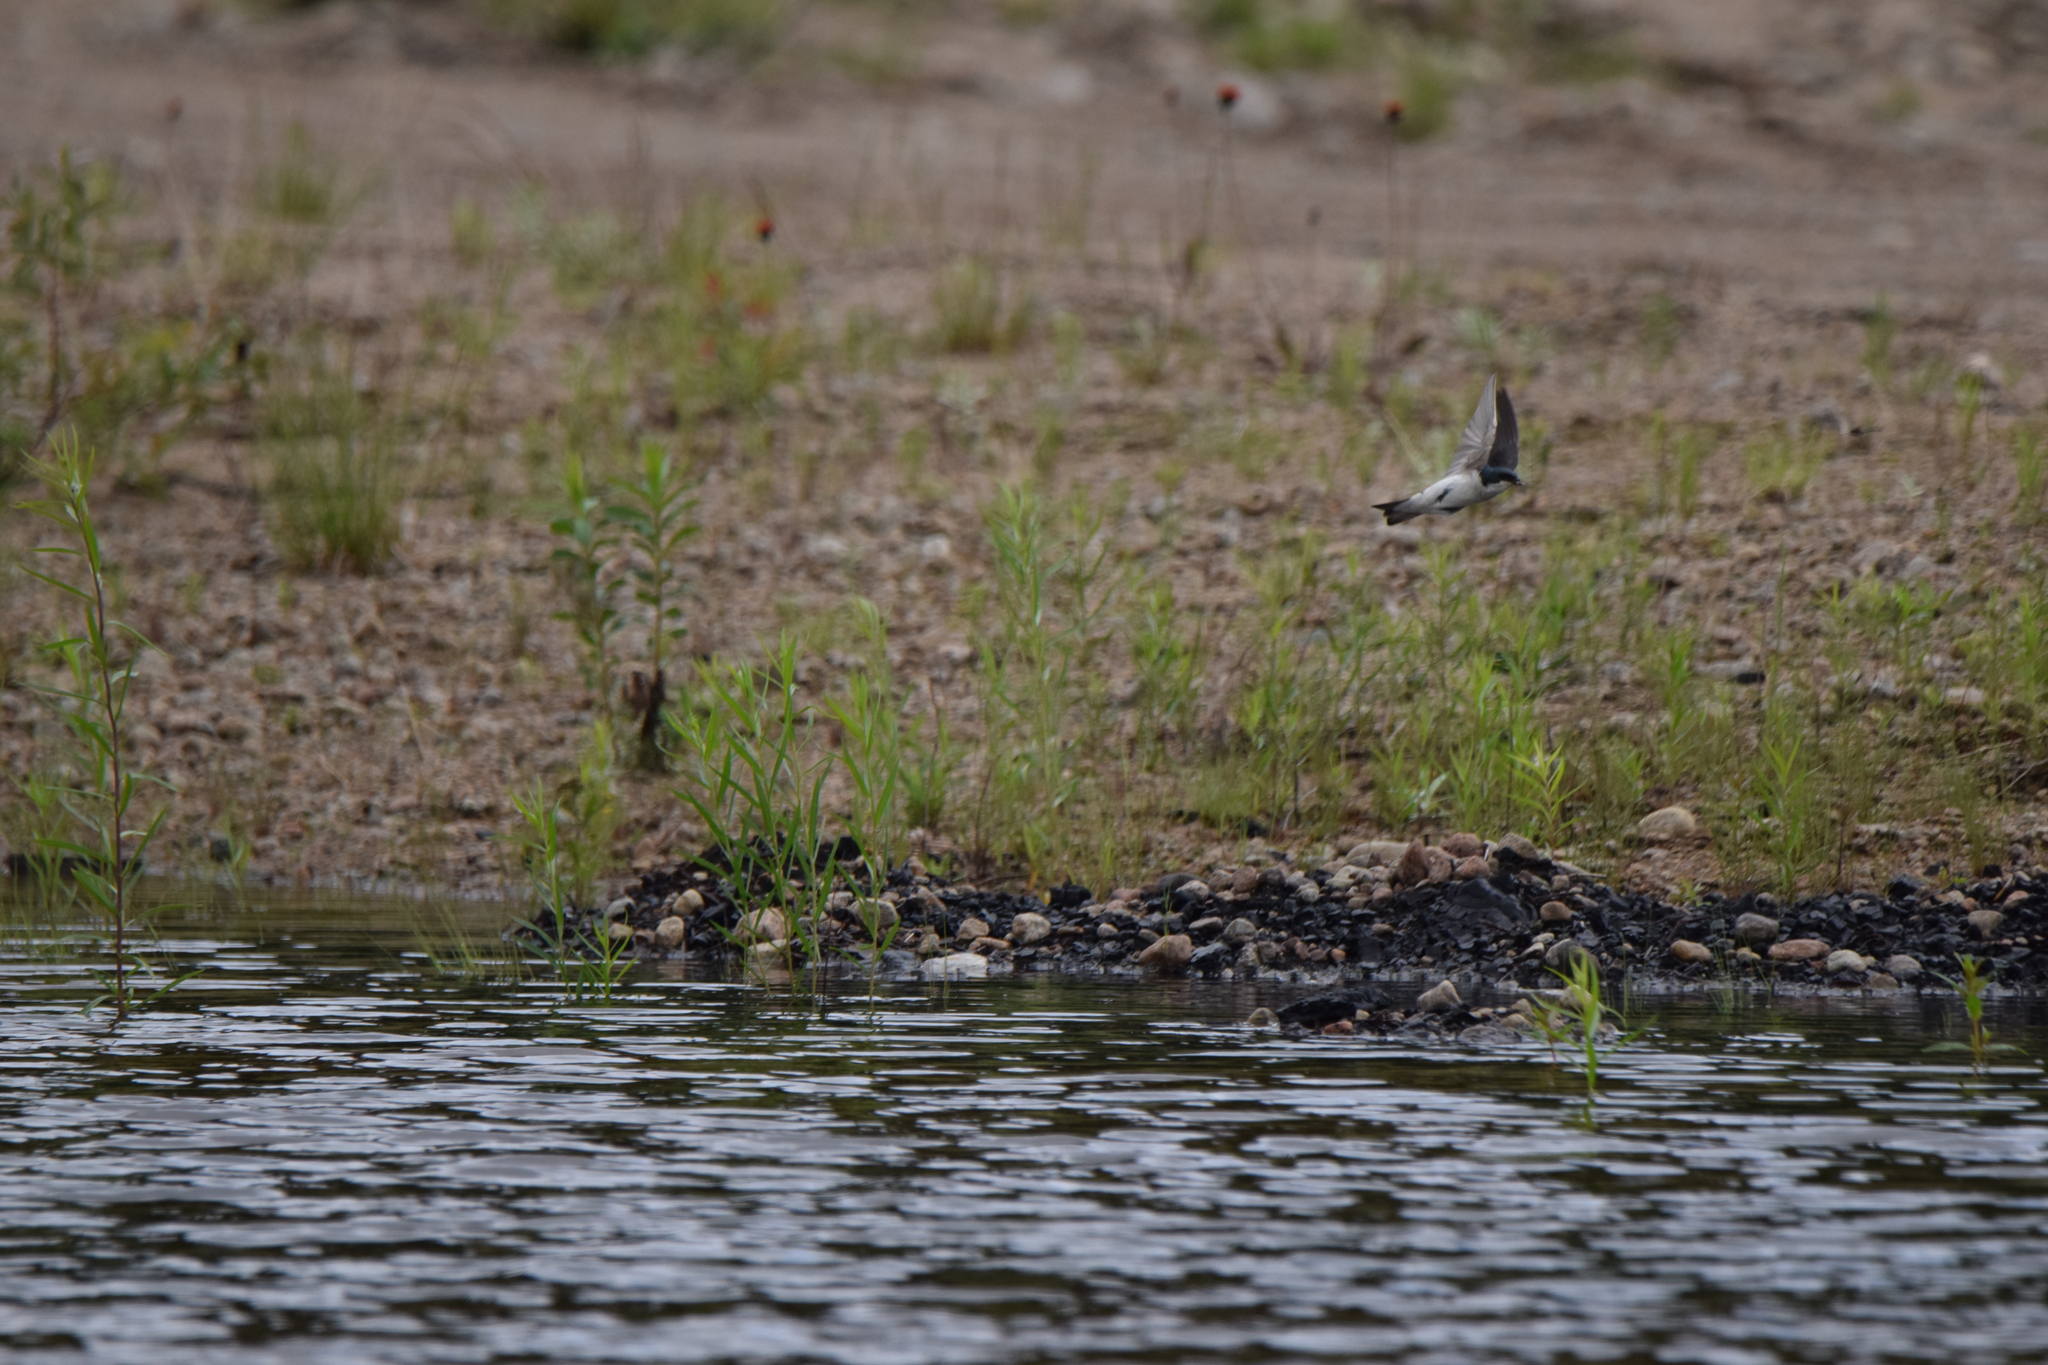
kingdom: Animalia
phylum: Chordata
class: Aves
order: Passeriformes
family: Hirundinidae
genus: Tachycineta
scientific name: Tachycineta bicolor
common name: Tree swallow
